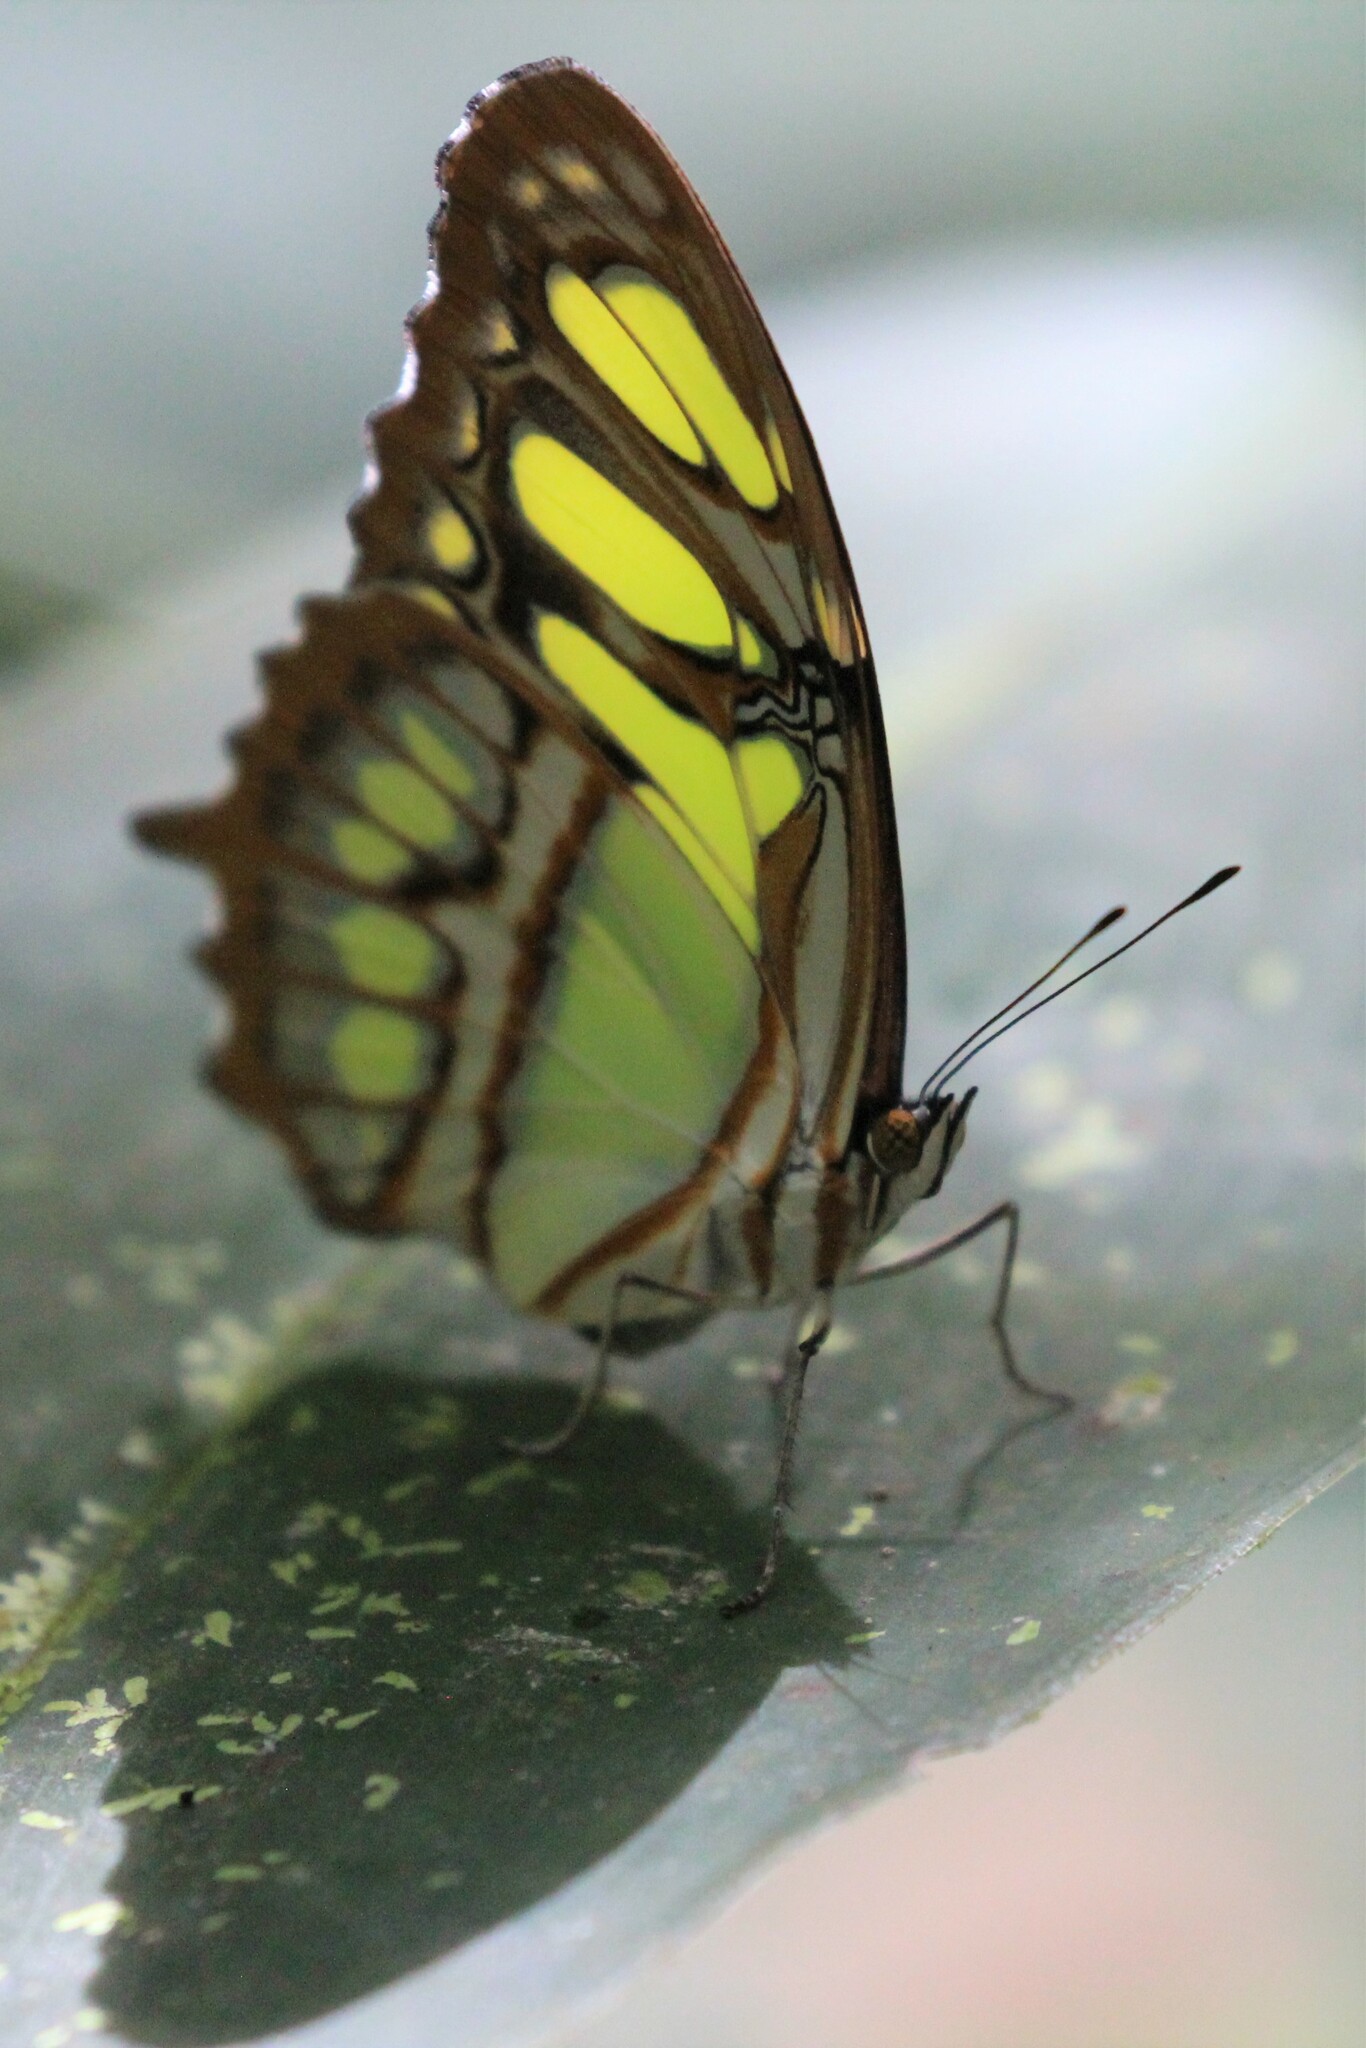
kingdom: Animalia
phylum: Arthropoda
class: Insecta
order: Lepidoptera
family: Nymphalidae
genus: Siproeta
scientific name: Siproeta stelenes
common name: Malachite
